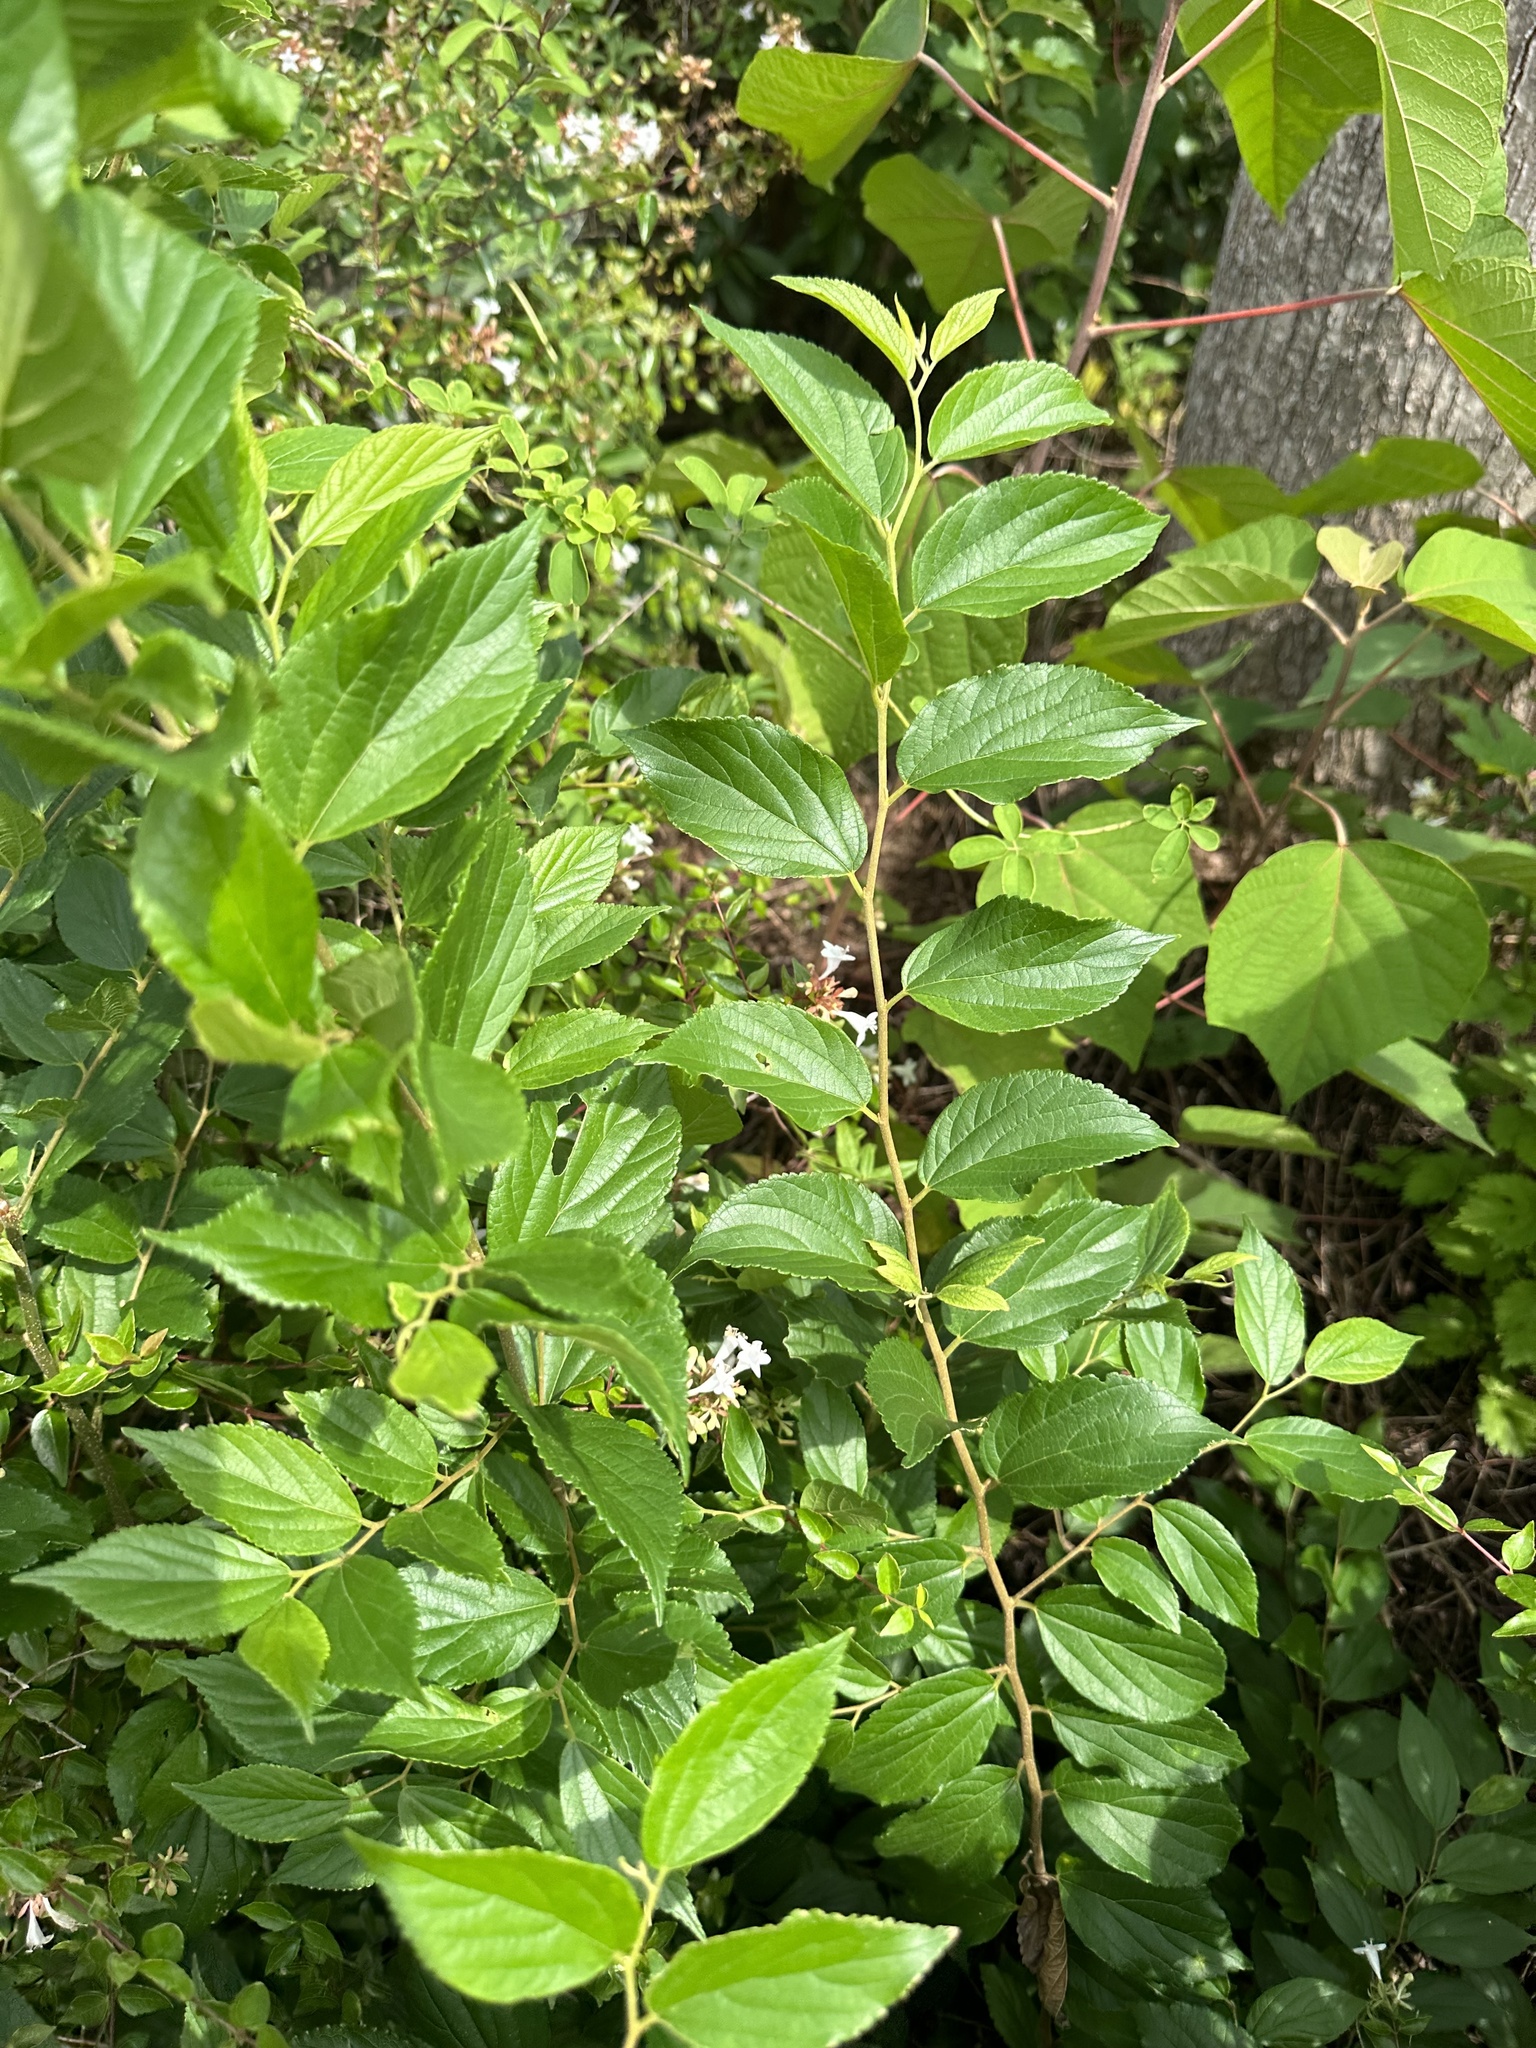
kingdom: Plantae
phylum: Tracheophyta
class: Magnoliopsida
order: Rosales
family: Cannabaceae
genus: Celtis
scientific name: Celtis sinensis
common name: Chinese hackberry
